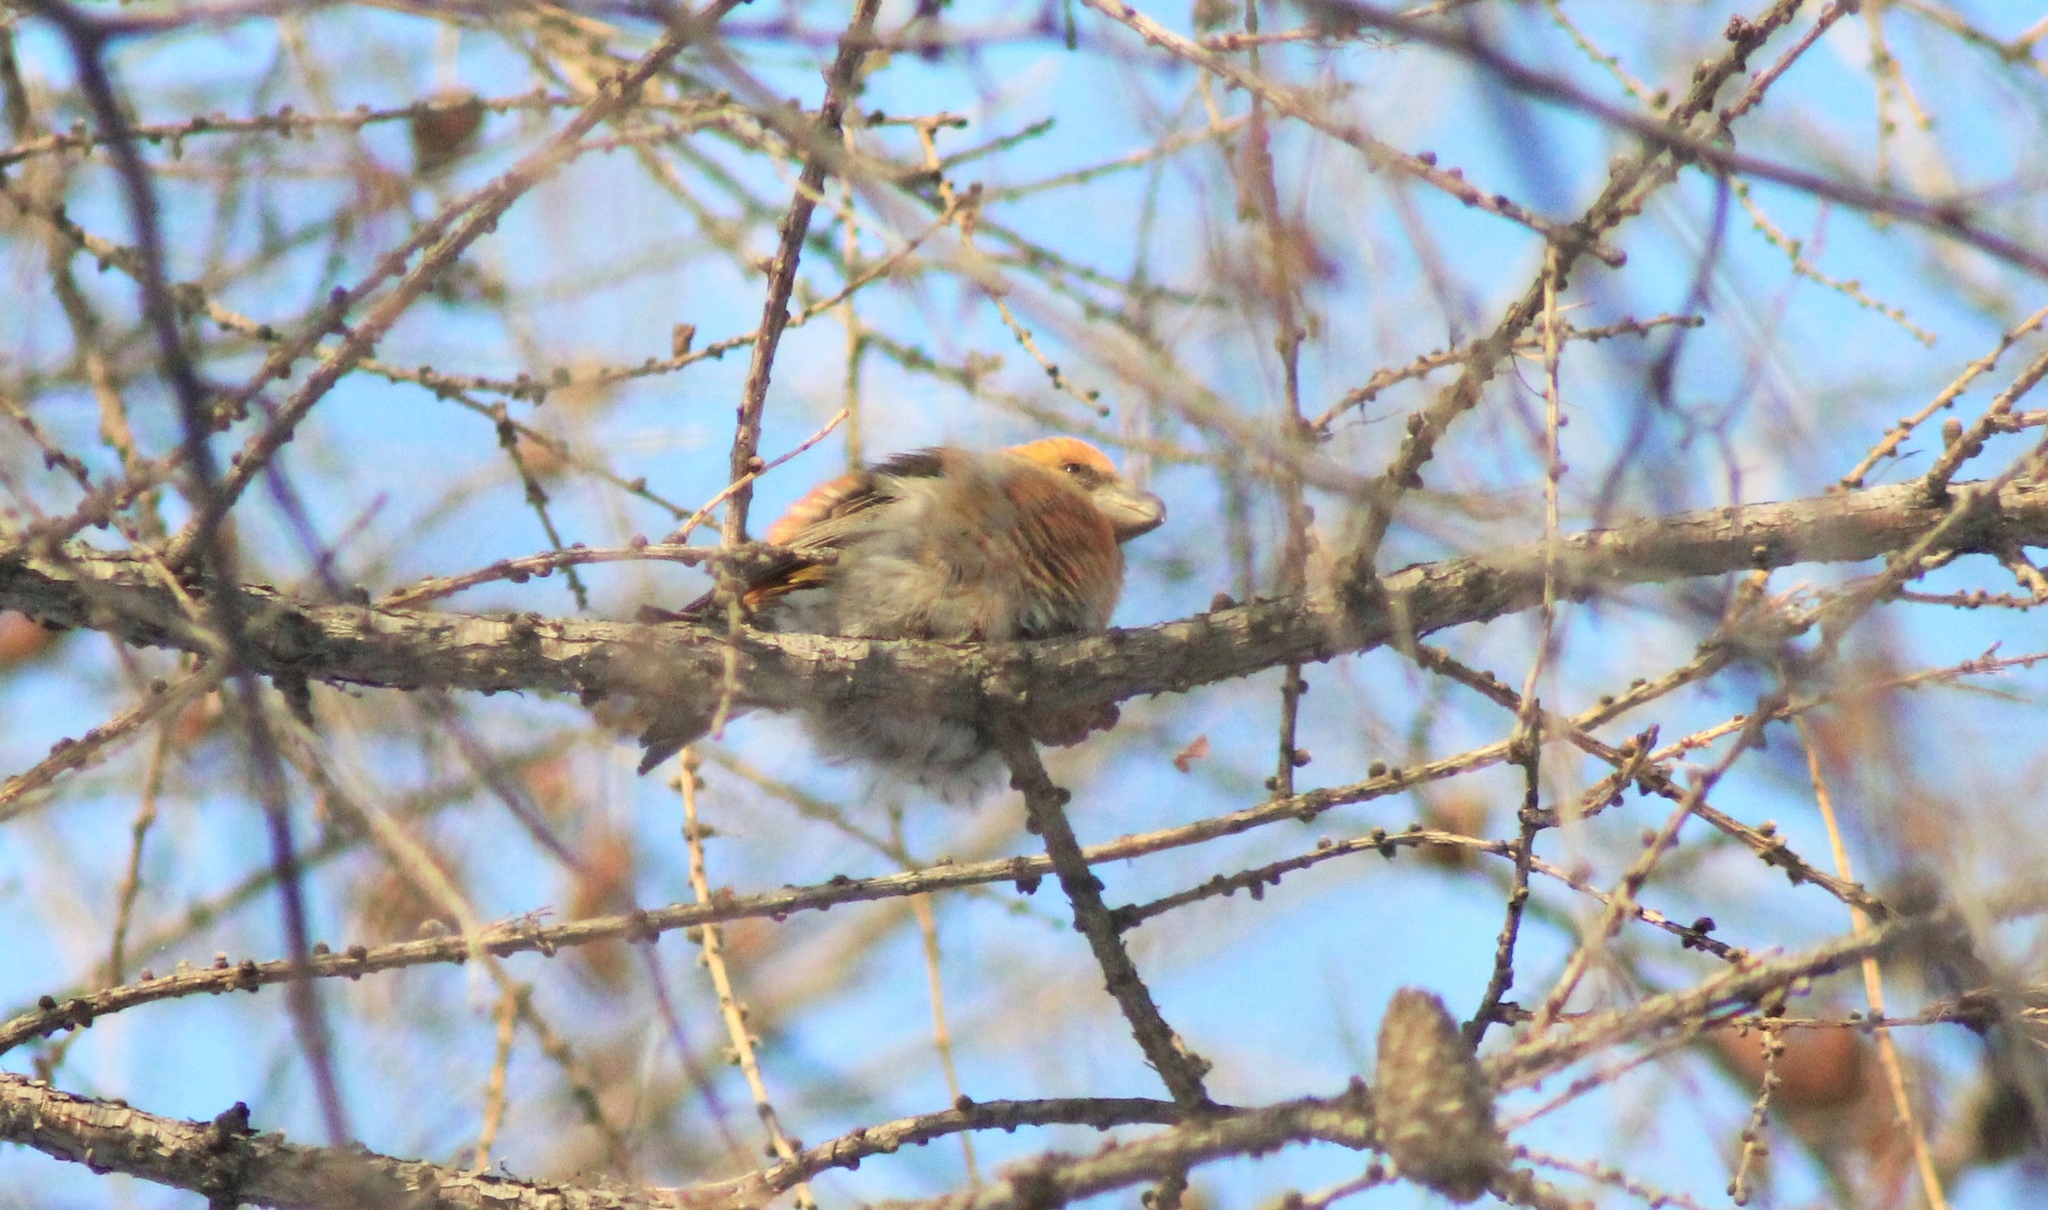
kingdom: Animalia
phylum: Chordata
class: Aves
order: Passeriformes
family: Fringillidae
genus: Loxia
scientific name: Loxia pytyopsittacus
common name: Parrot crossbill
